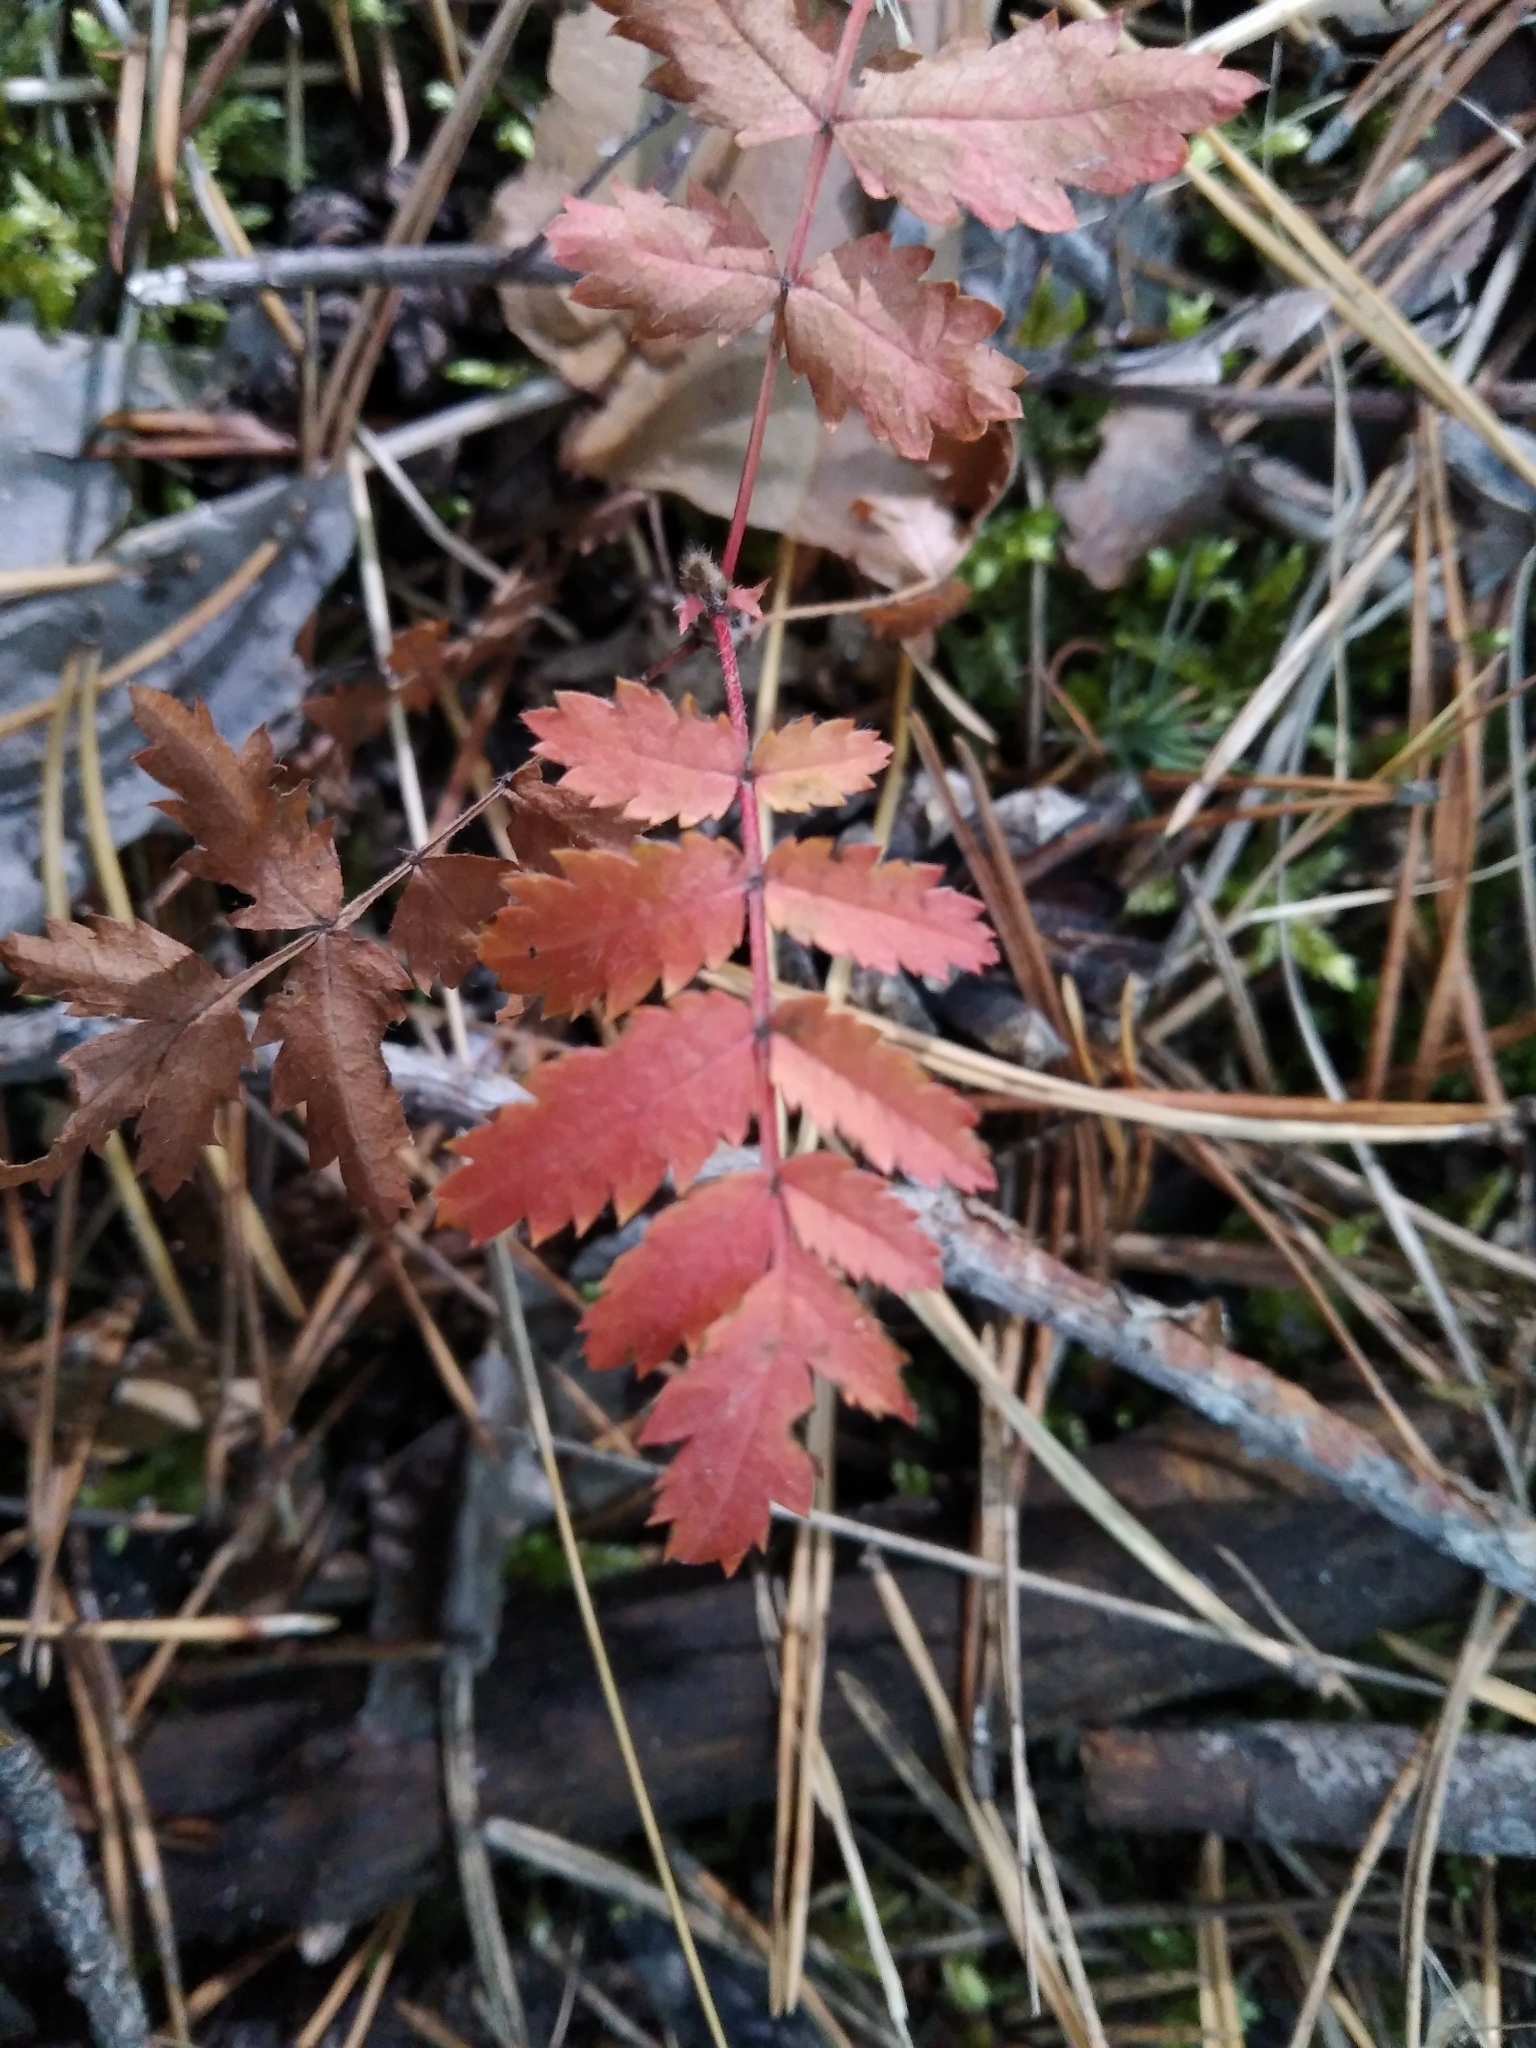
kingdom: Plantae
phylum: Tracheophyta
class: Magnoliopsida
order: Rosales
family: Rosaceae
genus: Sorbus
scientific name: Sorbus aucuparia
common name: Rowan
